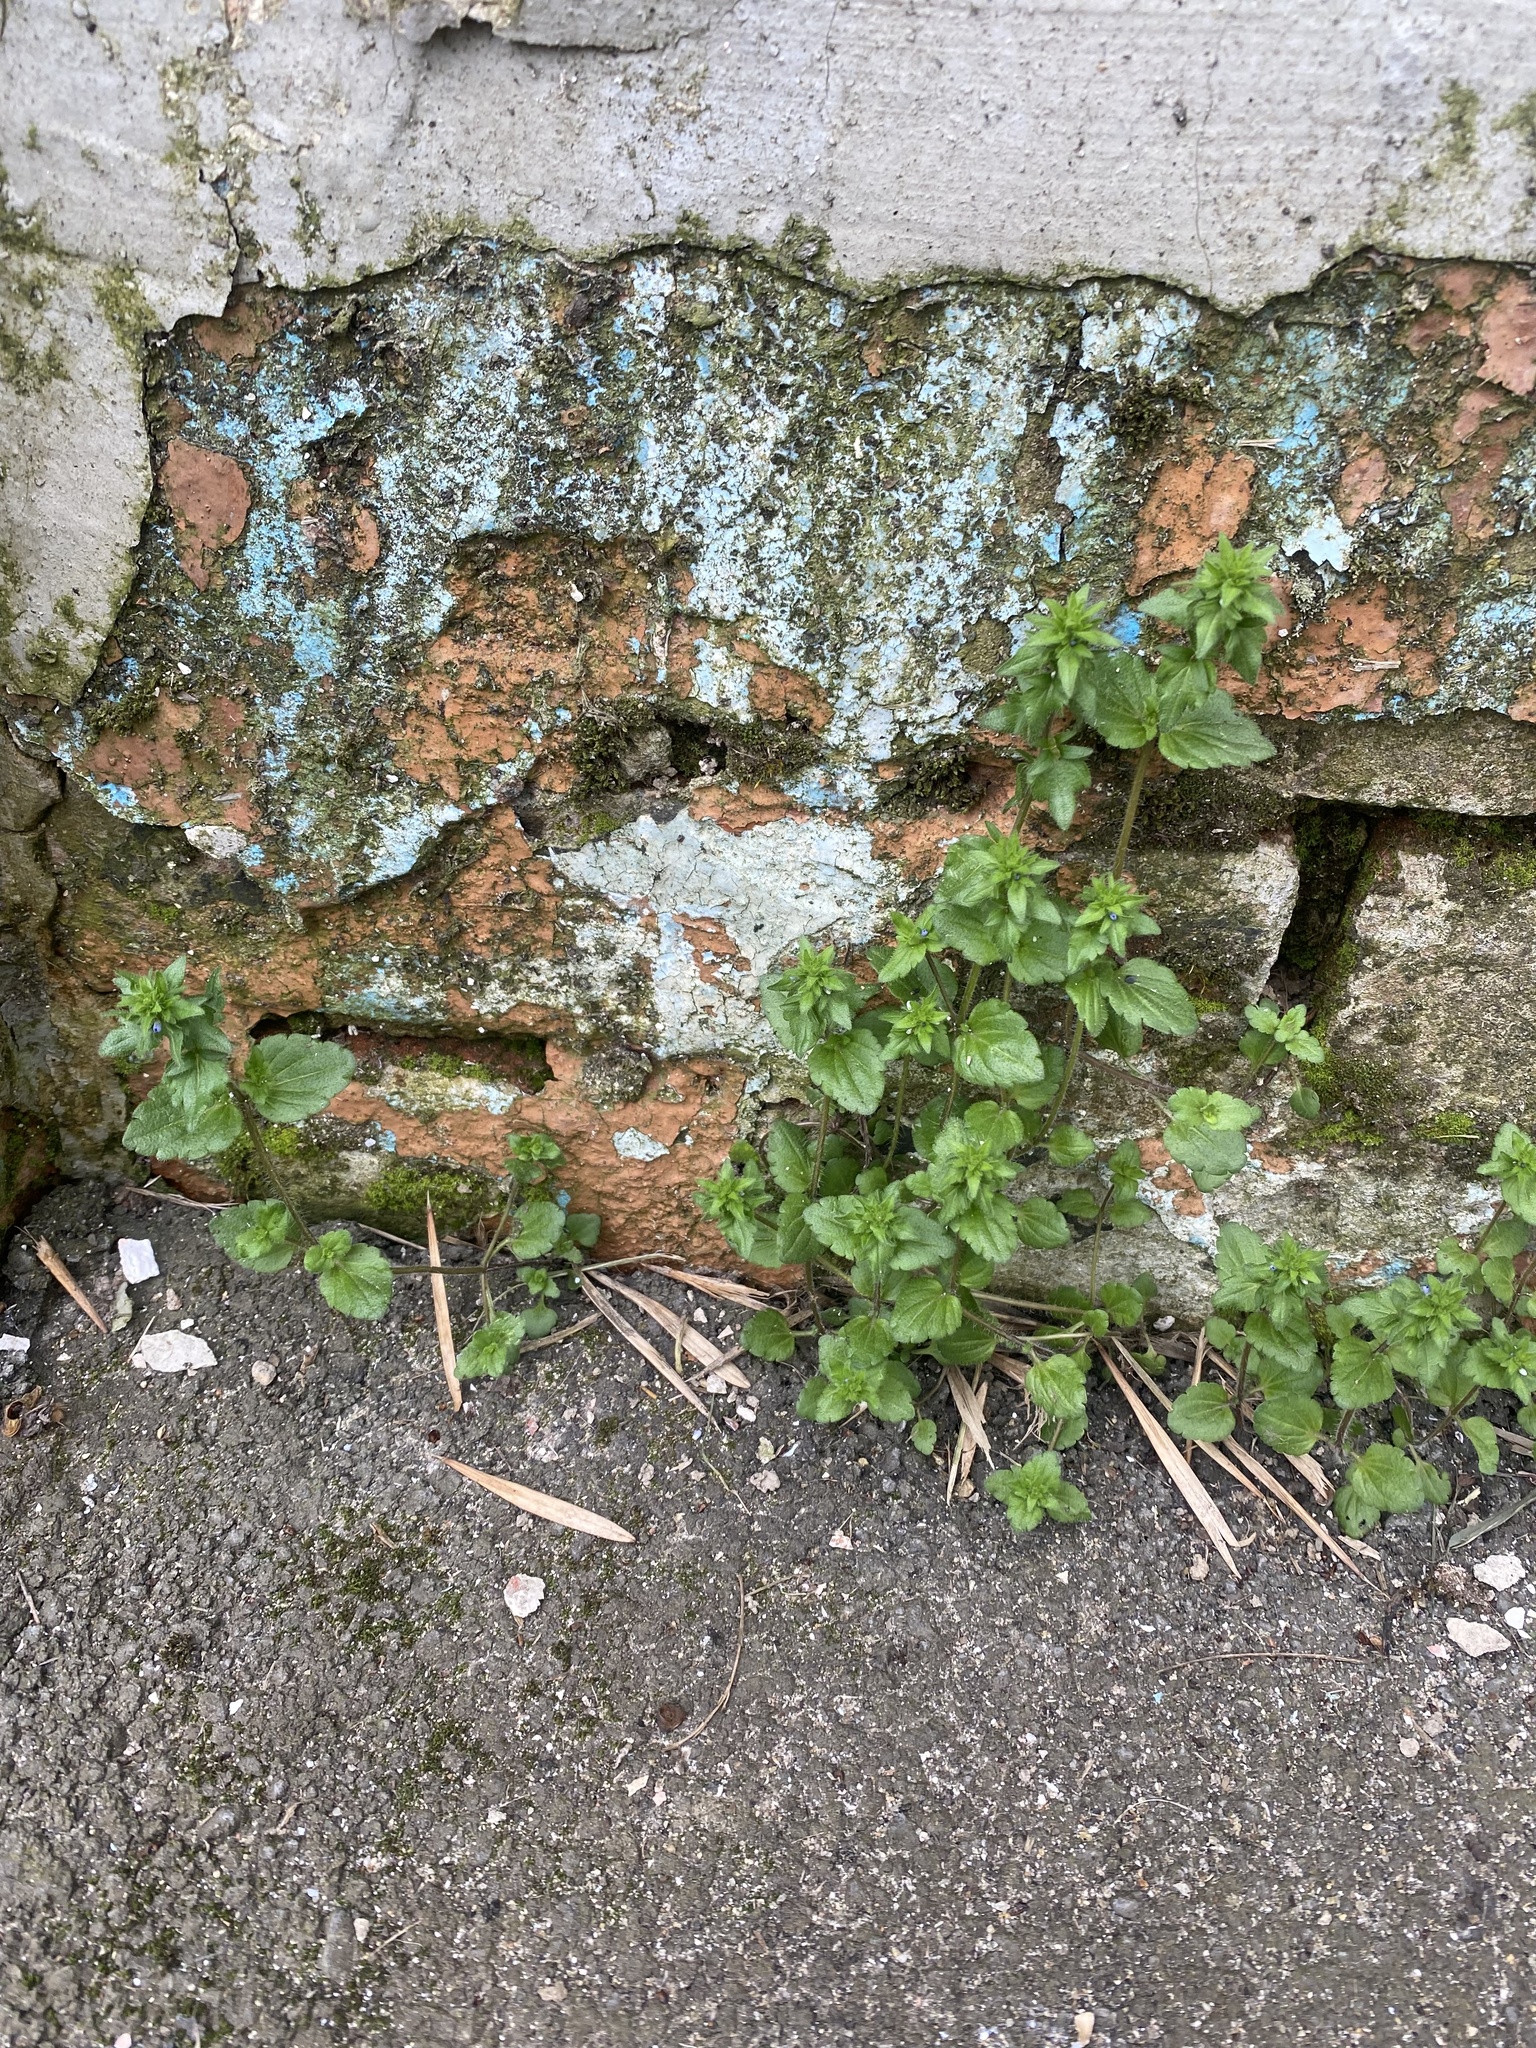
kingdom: Plantae
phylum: Tracheophyta
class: Magnoliopsida
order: Lamiales
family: Plantaginaceae
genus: Veronica
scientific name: Veronica arvensis
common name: Corn speedwell
